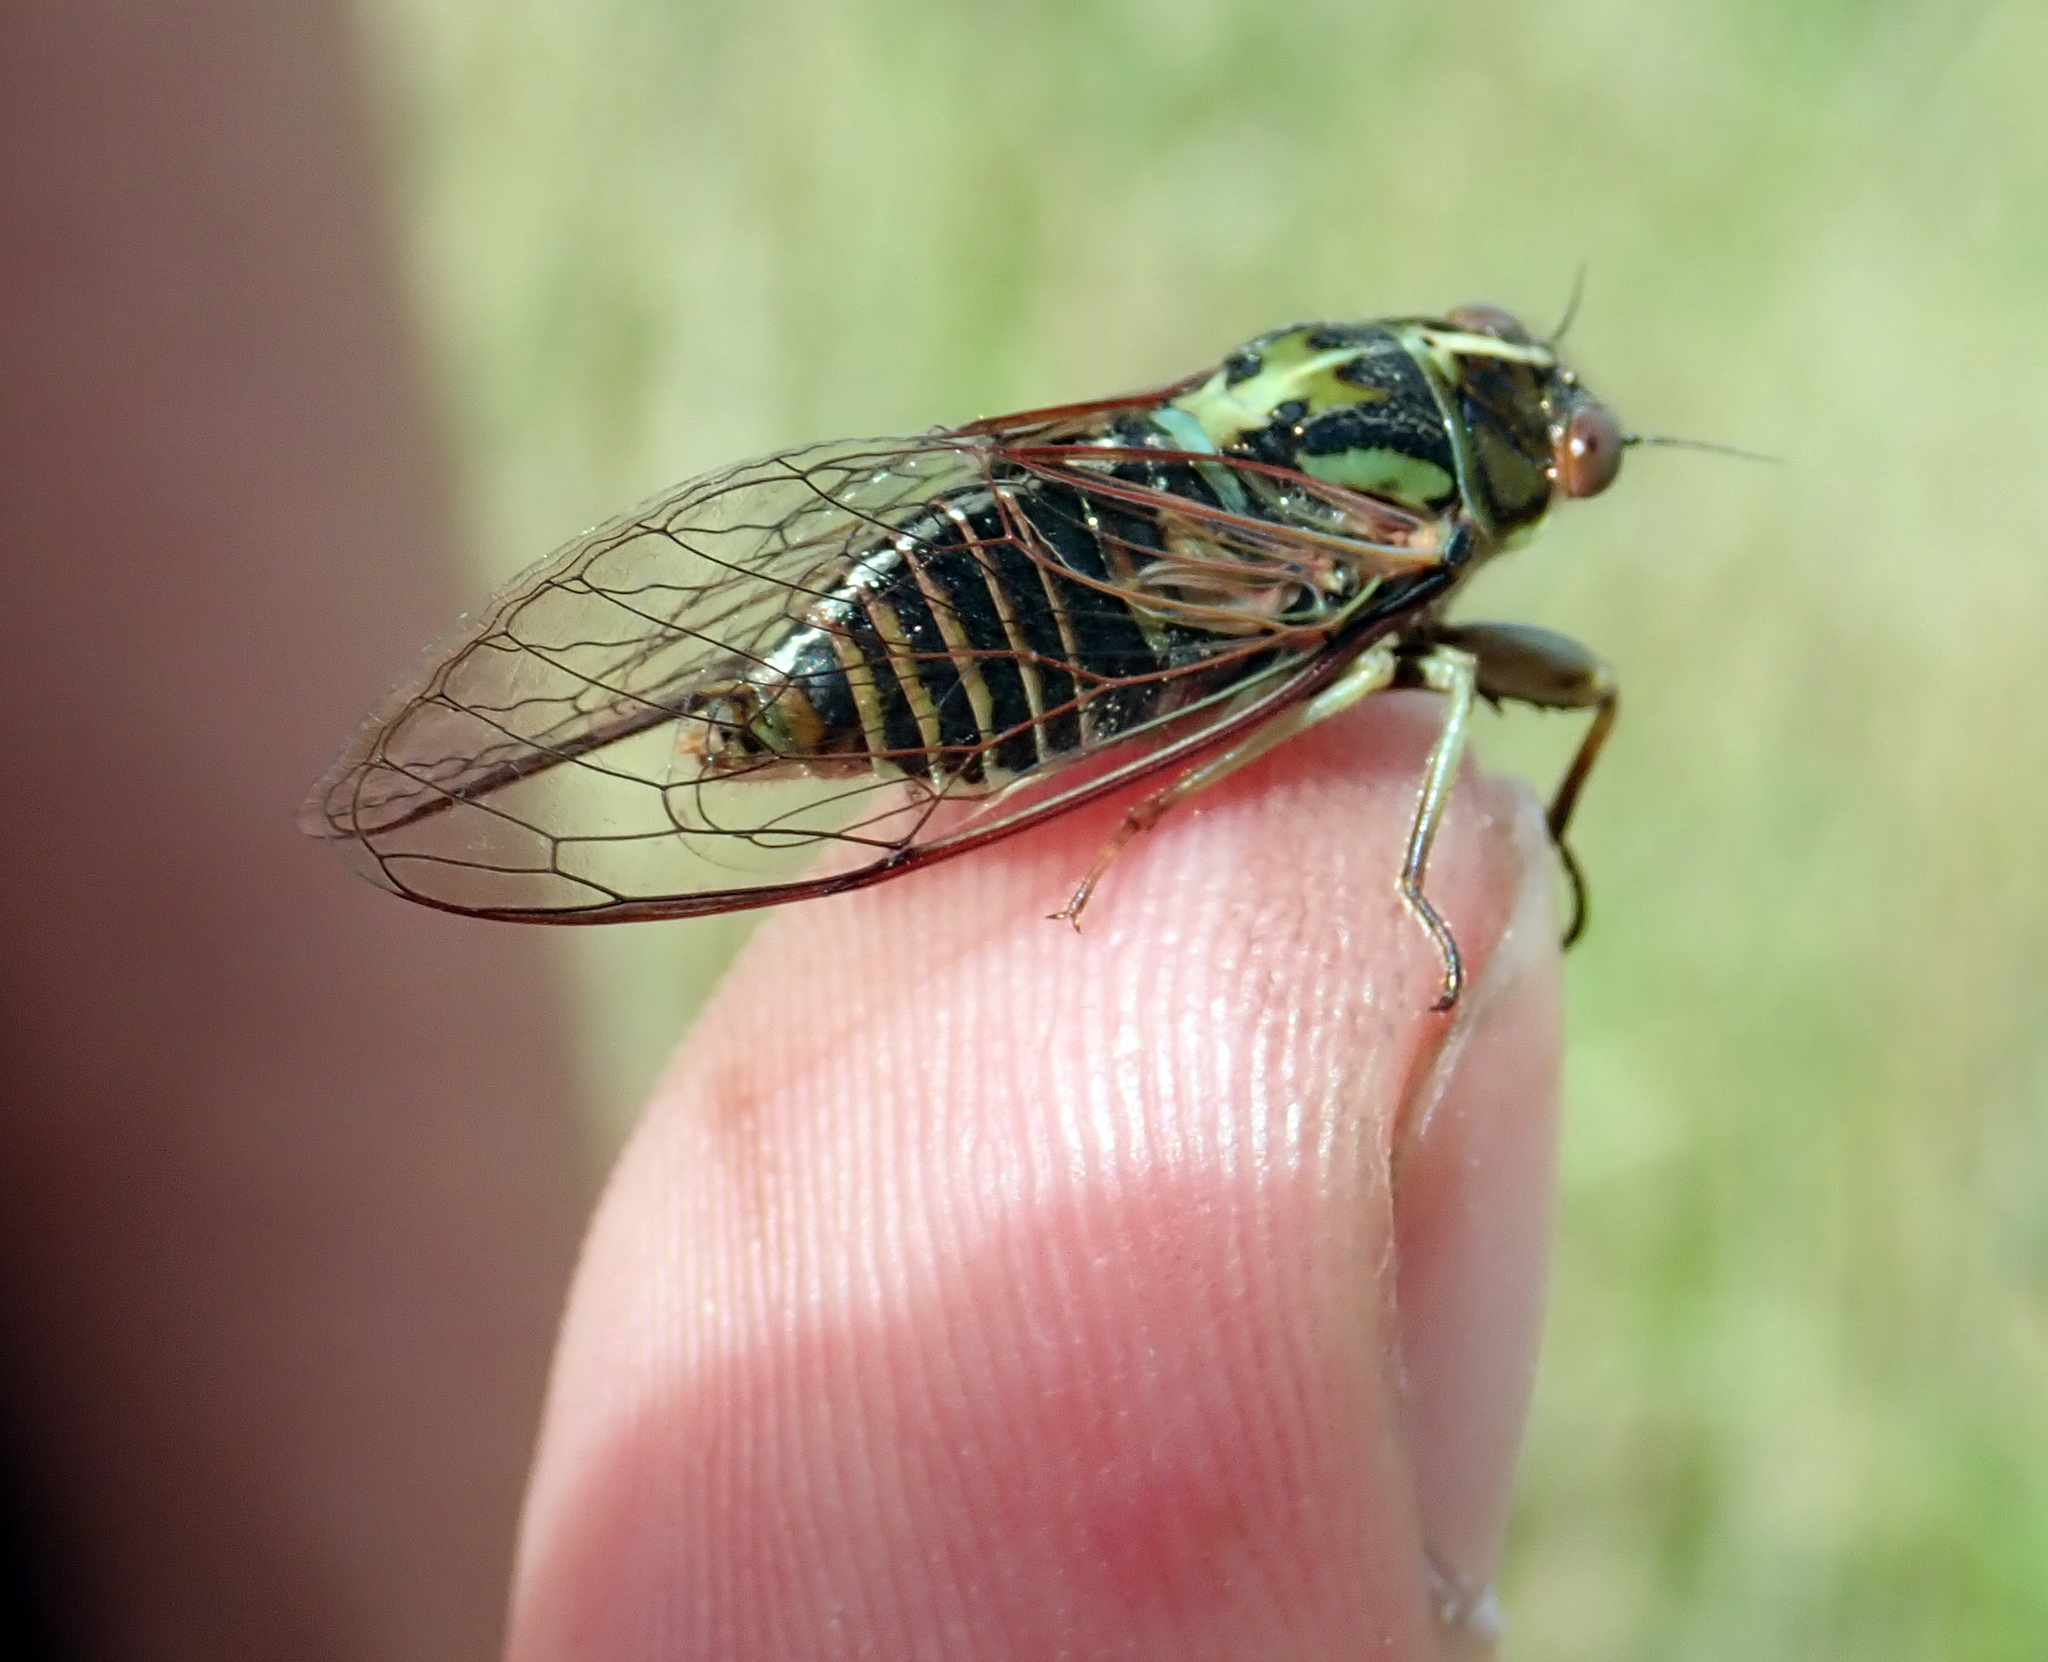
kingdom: Animalia
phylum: Arthropoda
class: Insecta
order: Hemiptera
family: Cicadidae
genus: Kikihia
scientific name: Kikihia muta
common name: Variable cicada
